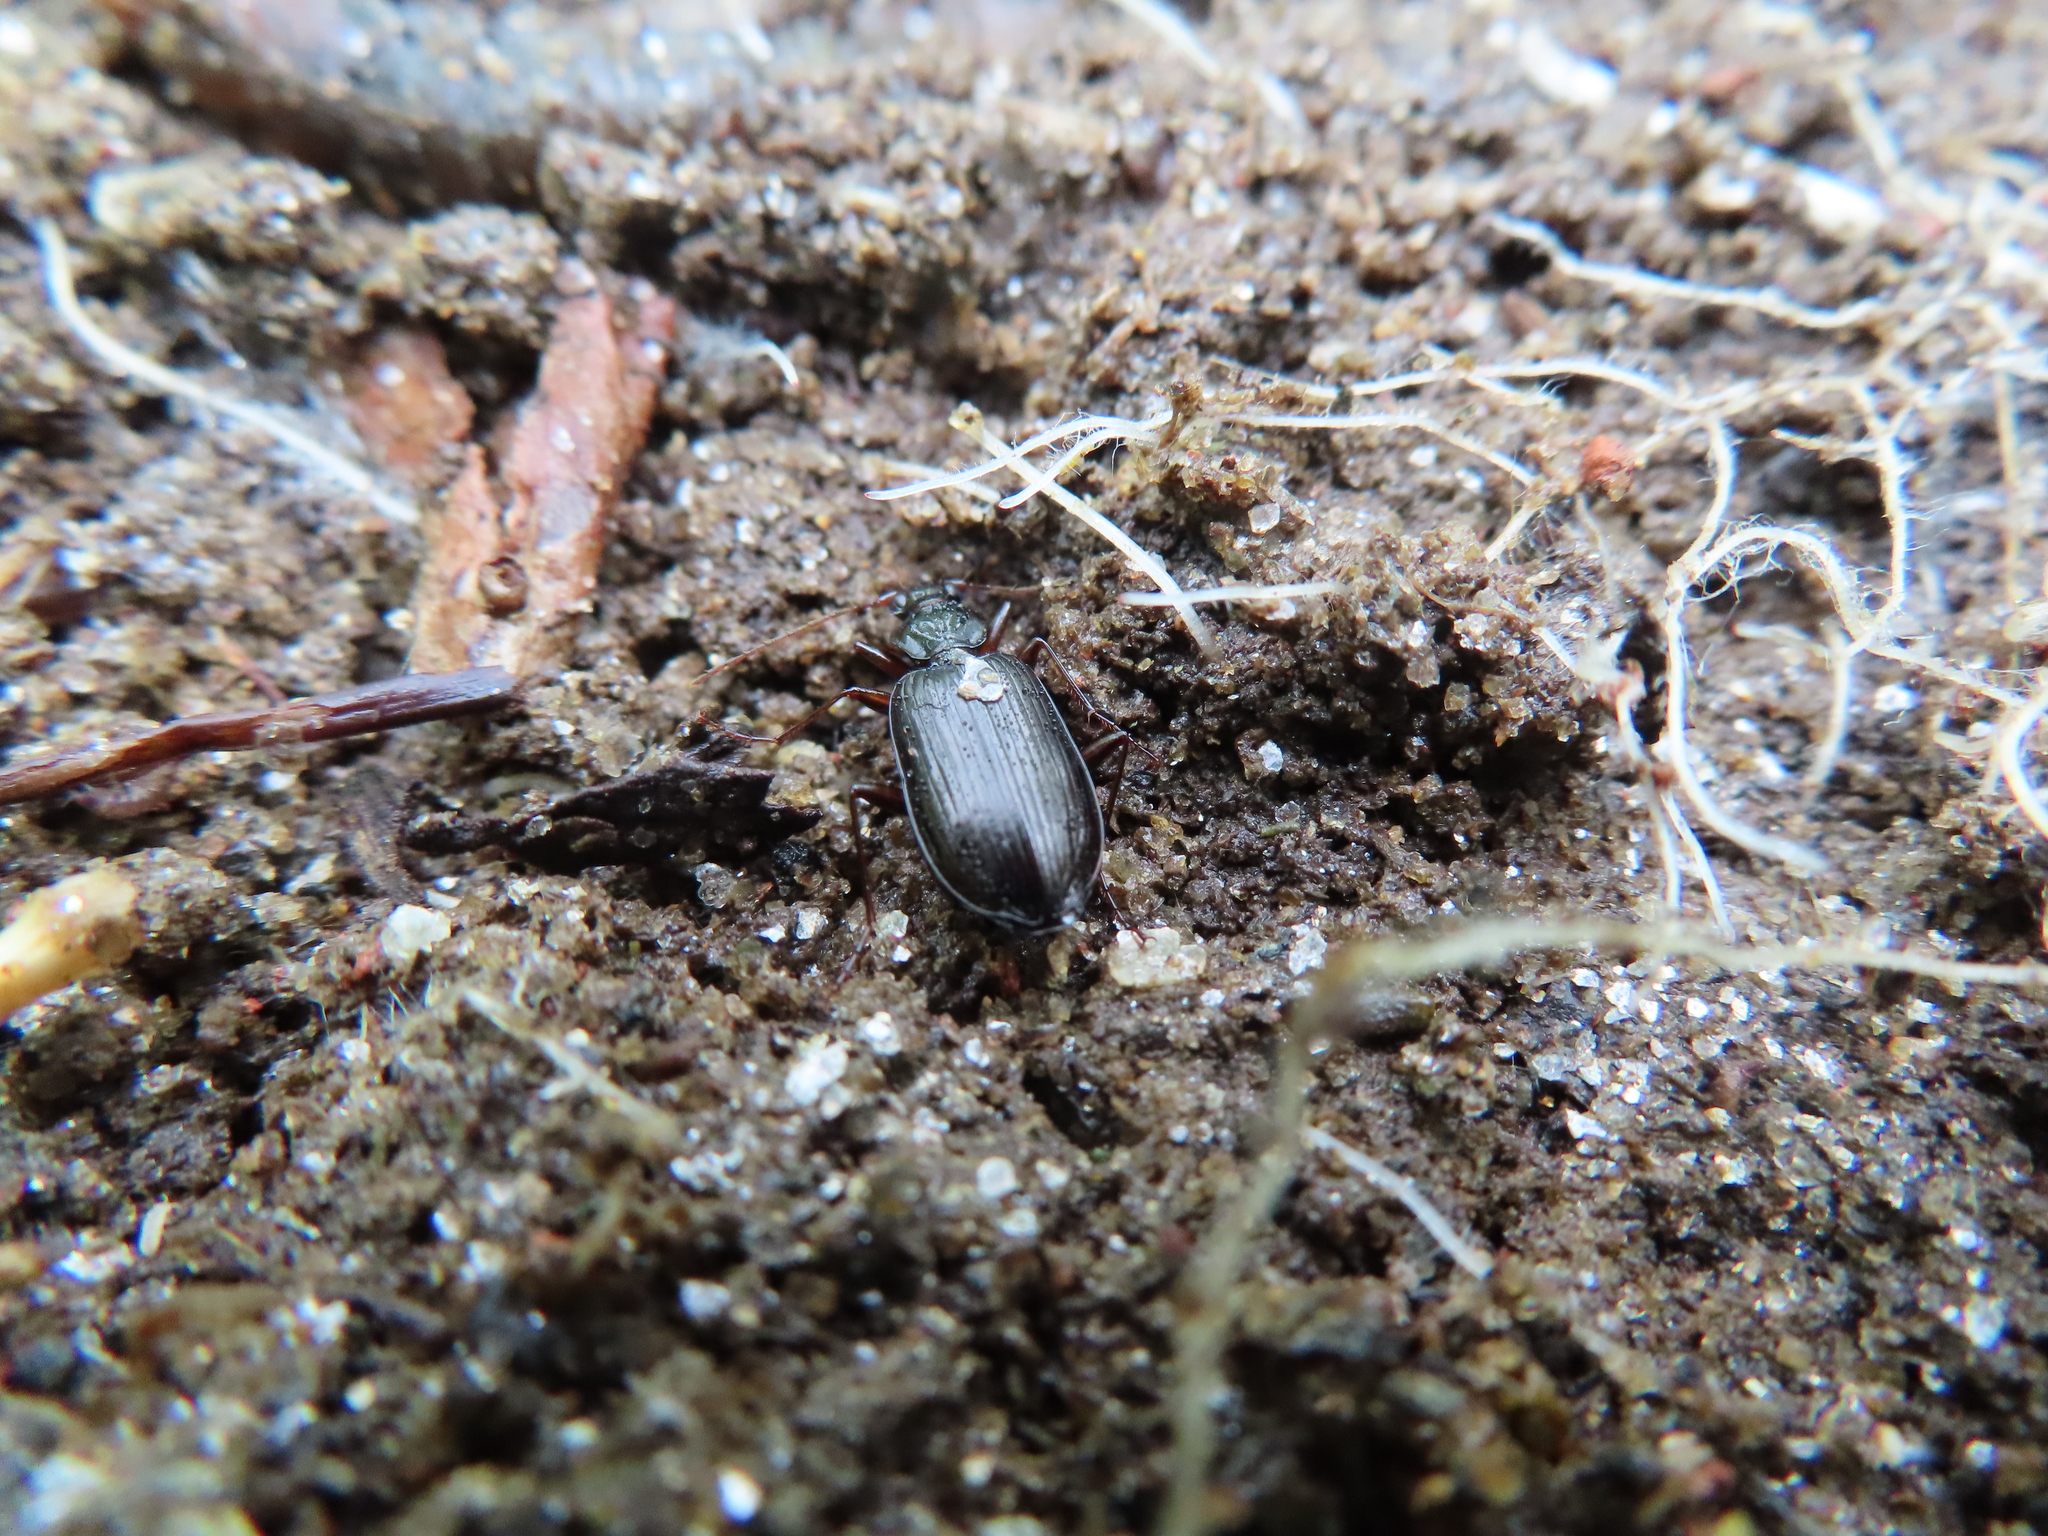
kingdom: Animalia
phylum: Arthropoda
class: Insecta
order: Coleoptera
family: Carabidae
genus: Platynus
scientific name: Platynus cincticollis
